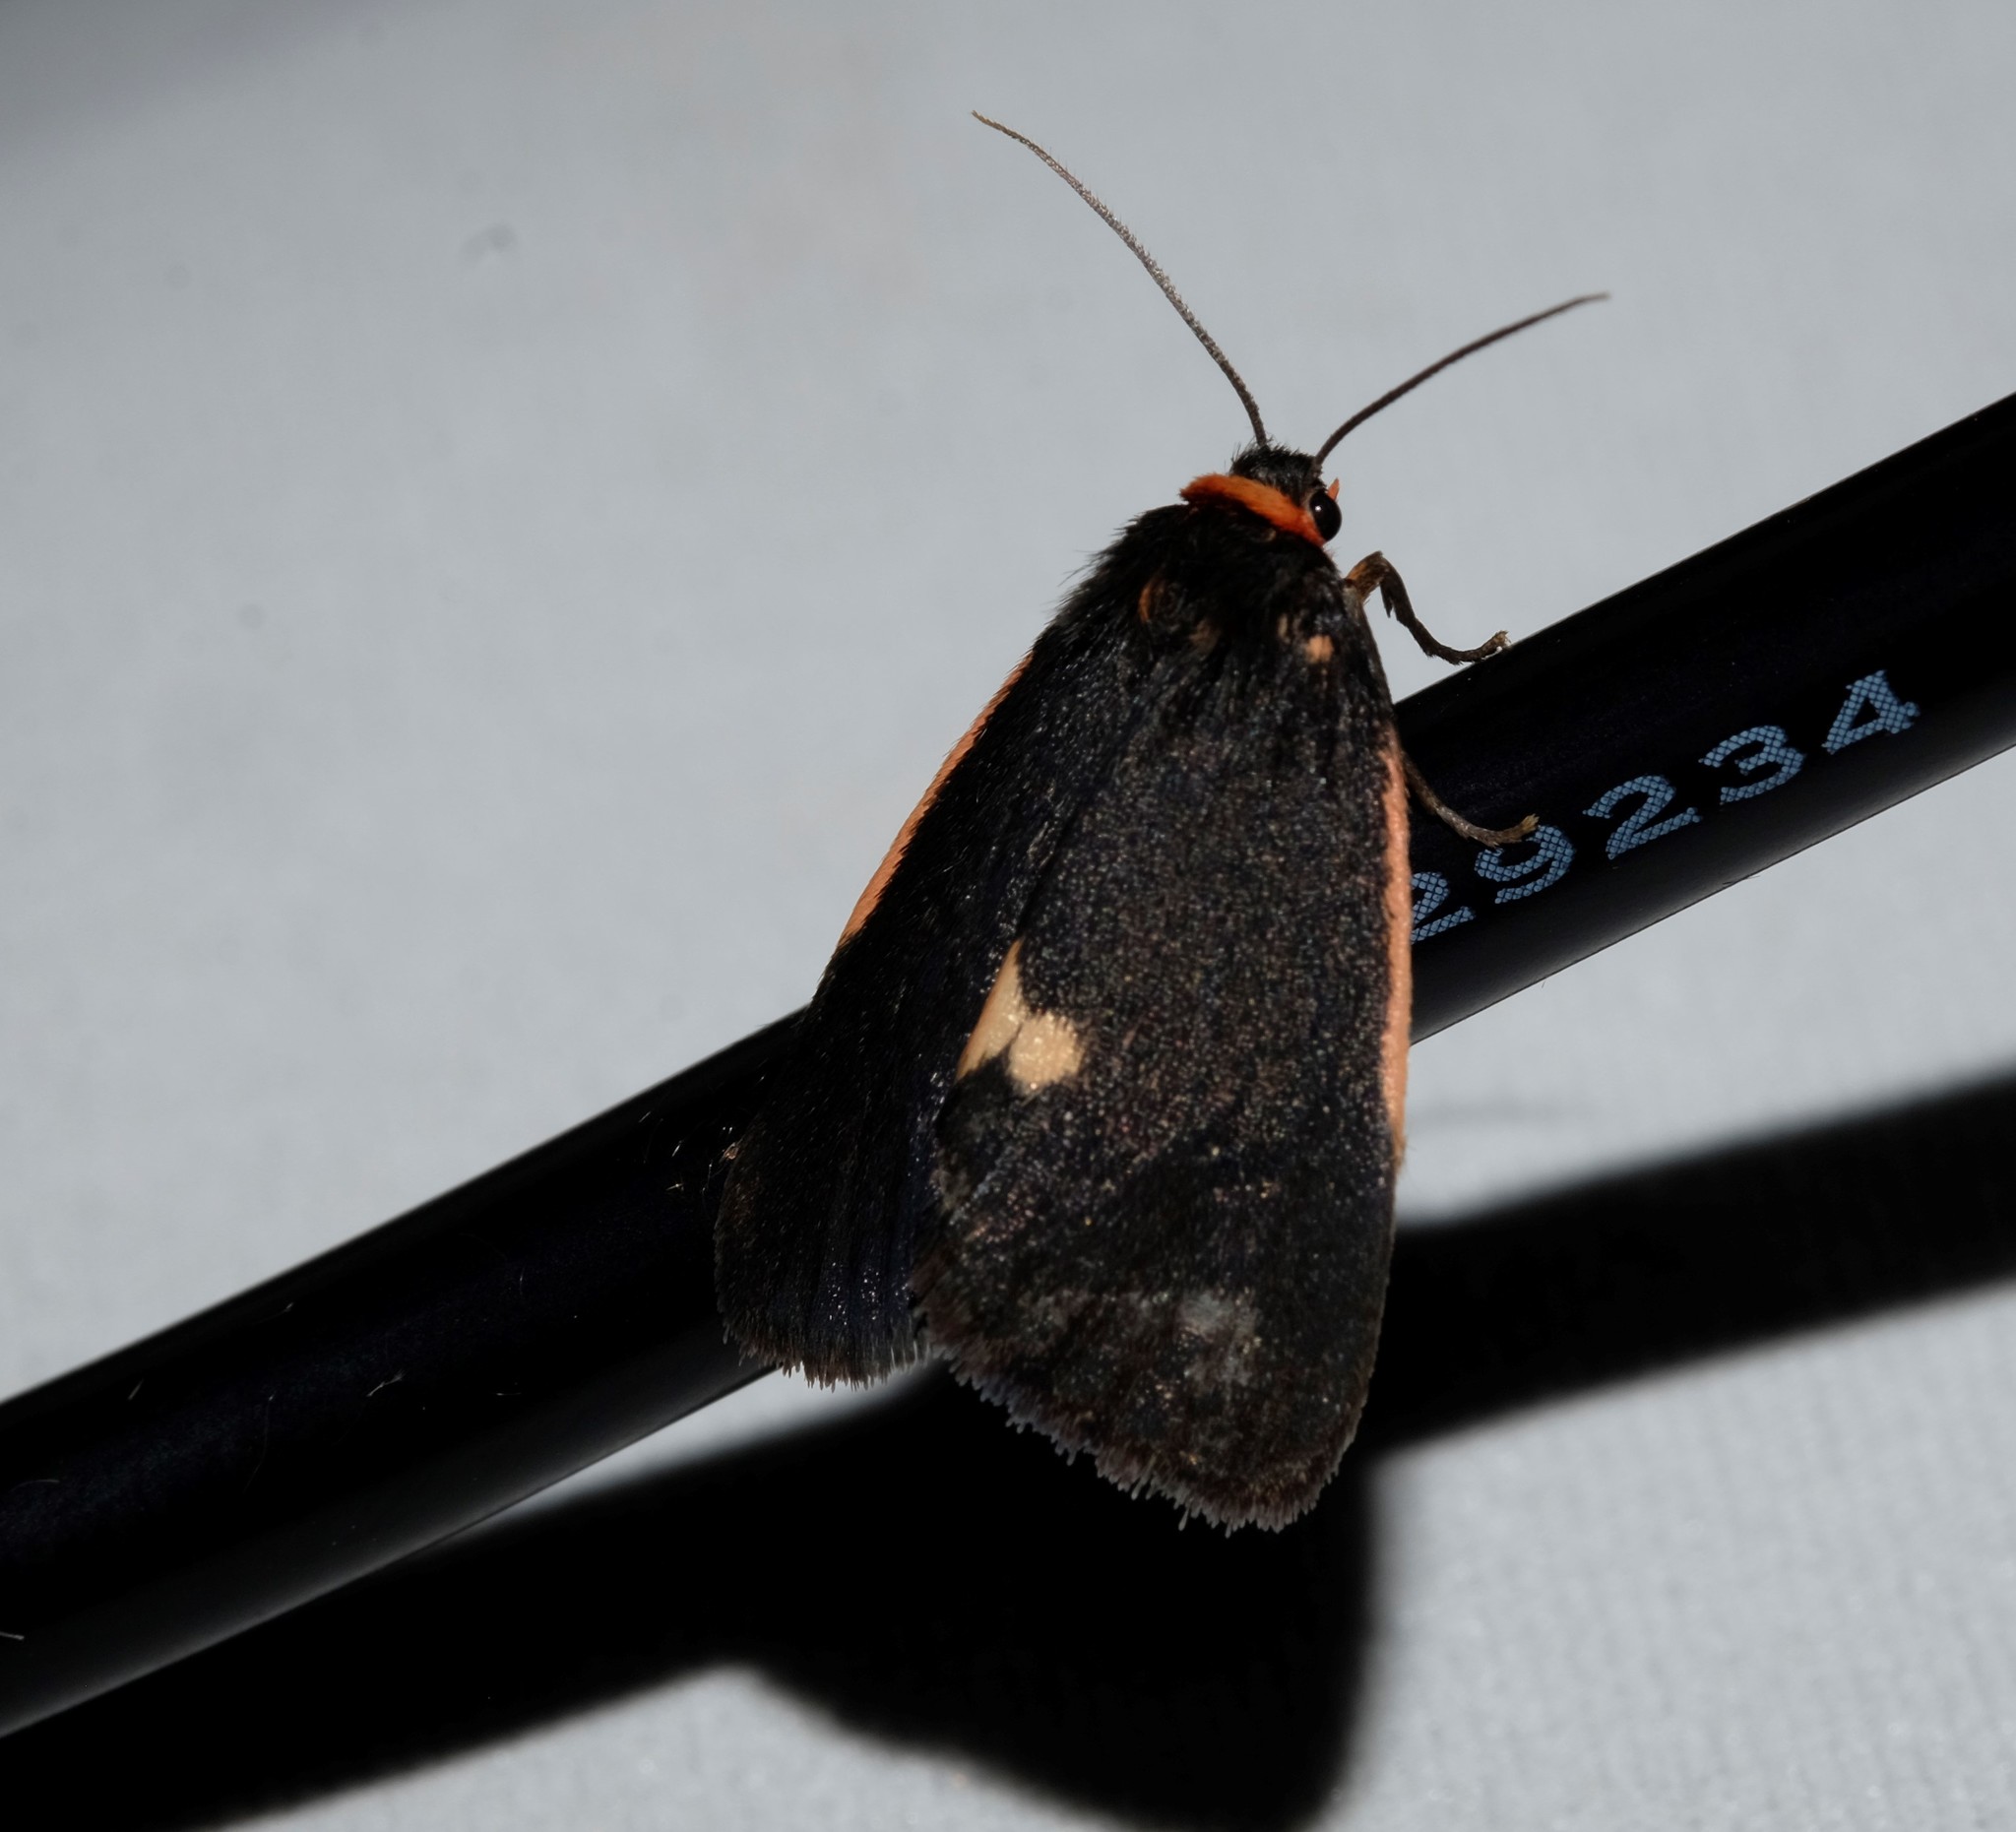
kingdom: Animalia
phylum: Arthropoda
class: Insecta
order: Lepidoptera
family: Erebidae
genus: Castulo
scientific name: Castulo doubledayi
